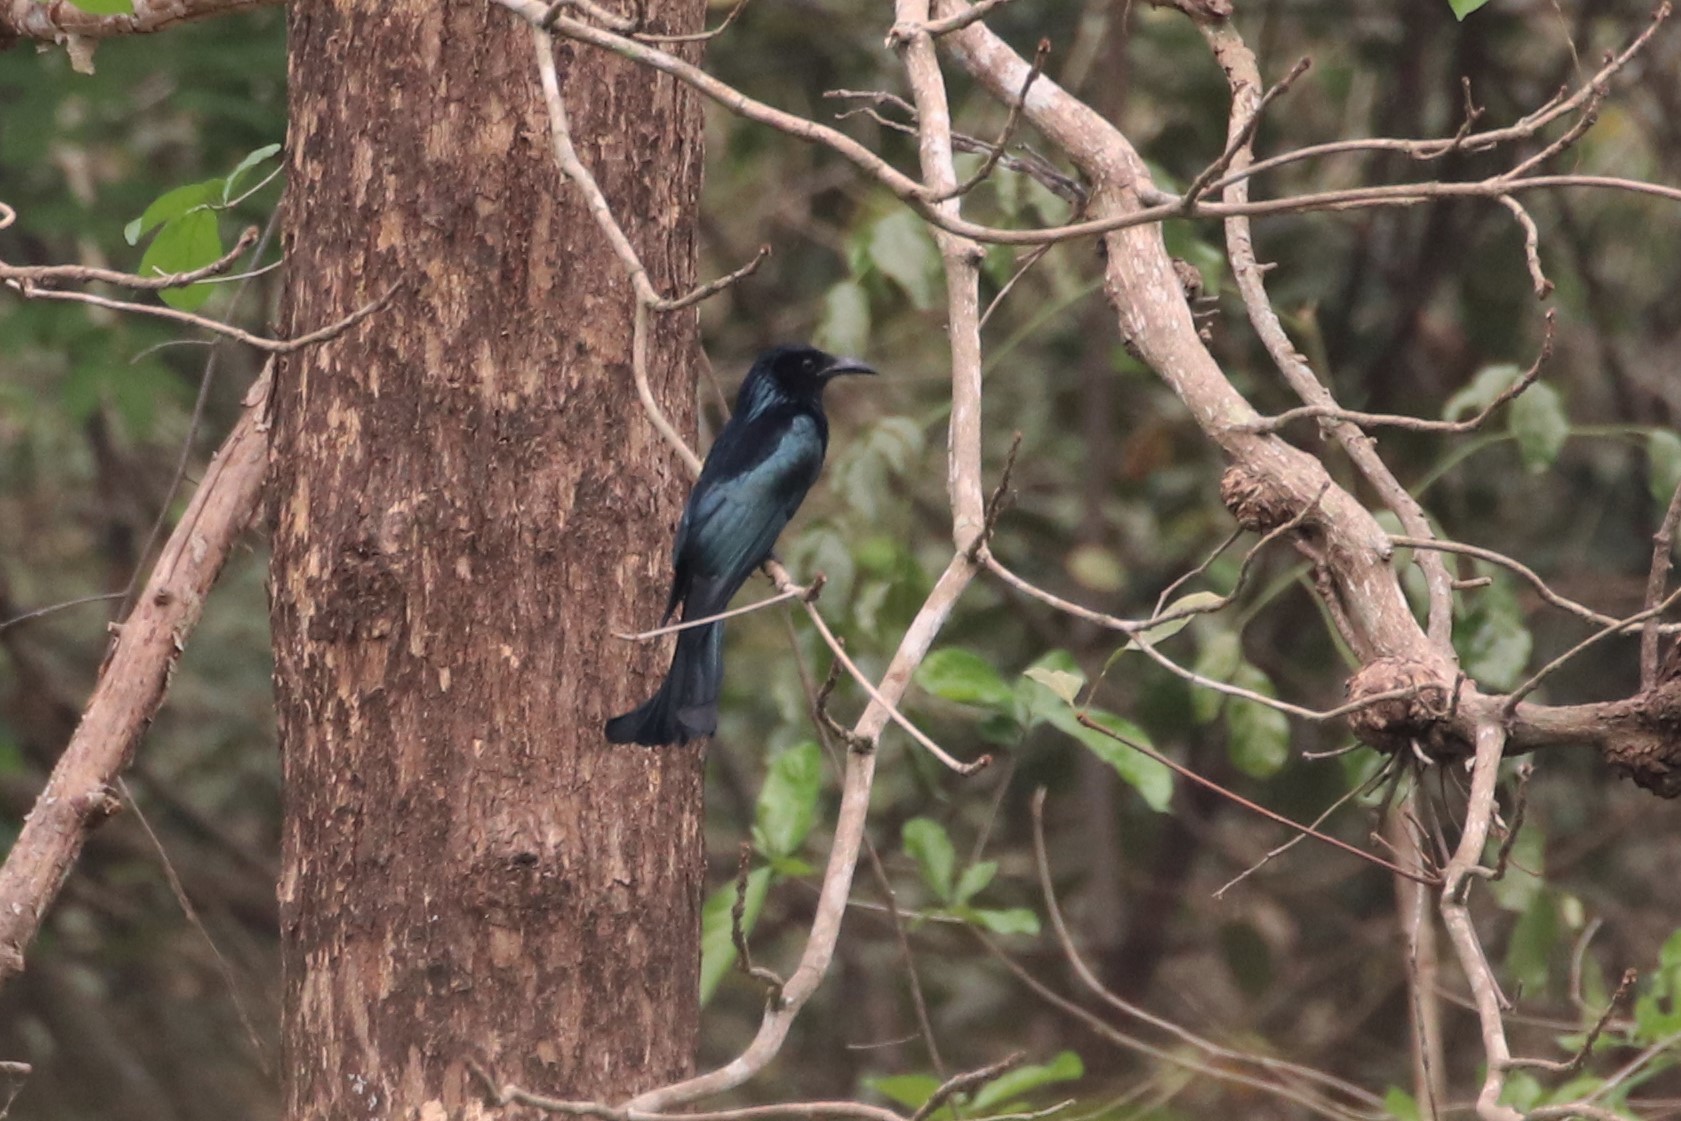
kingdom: Animalia
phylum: Chordata
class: Aves
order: Passeriformes
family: Dicruridae
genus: Dicrurus
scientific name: Dicrurus hottentottus
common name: Hair-crested drongo
